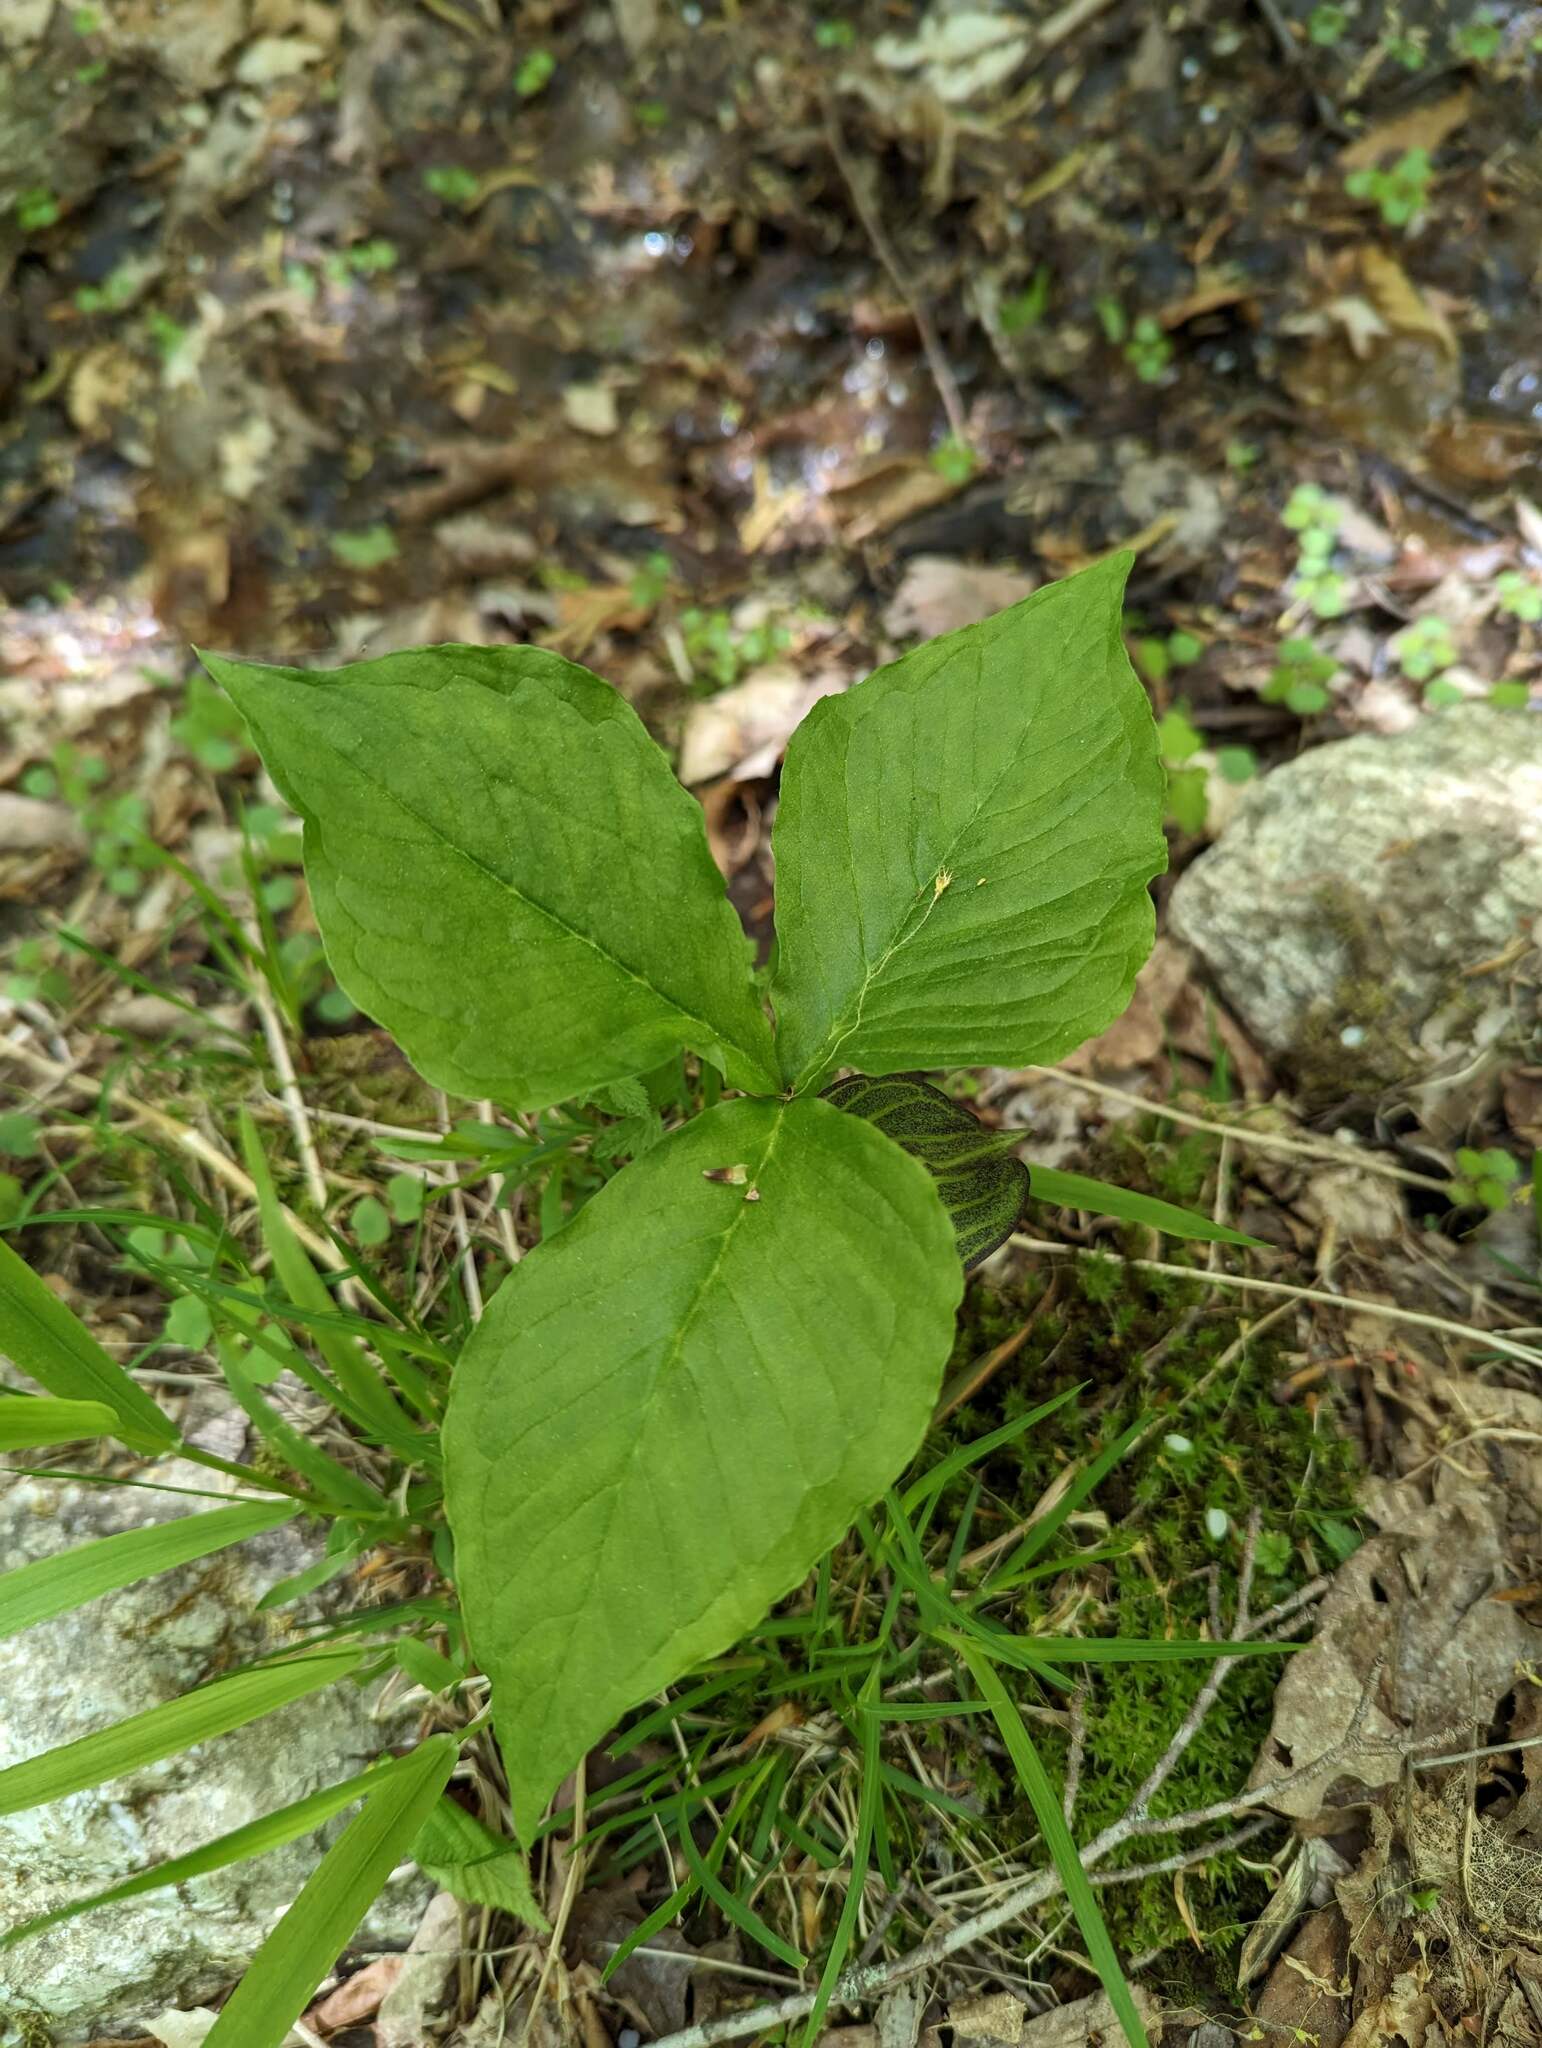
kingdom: Plantae
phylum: Tracheophyta
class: Liliopsida
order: Alismatales
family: Araceae
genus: Arisaema
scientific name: Arisaema triphyllum
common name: Jack-in-the-pulpit
